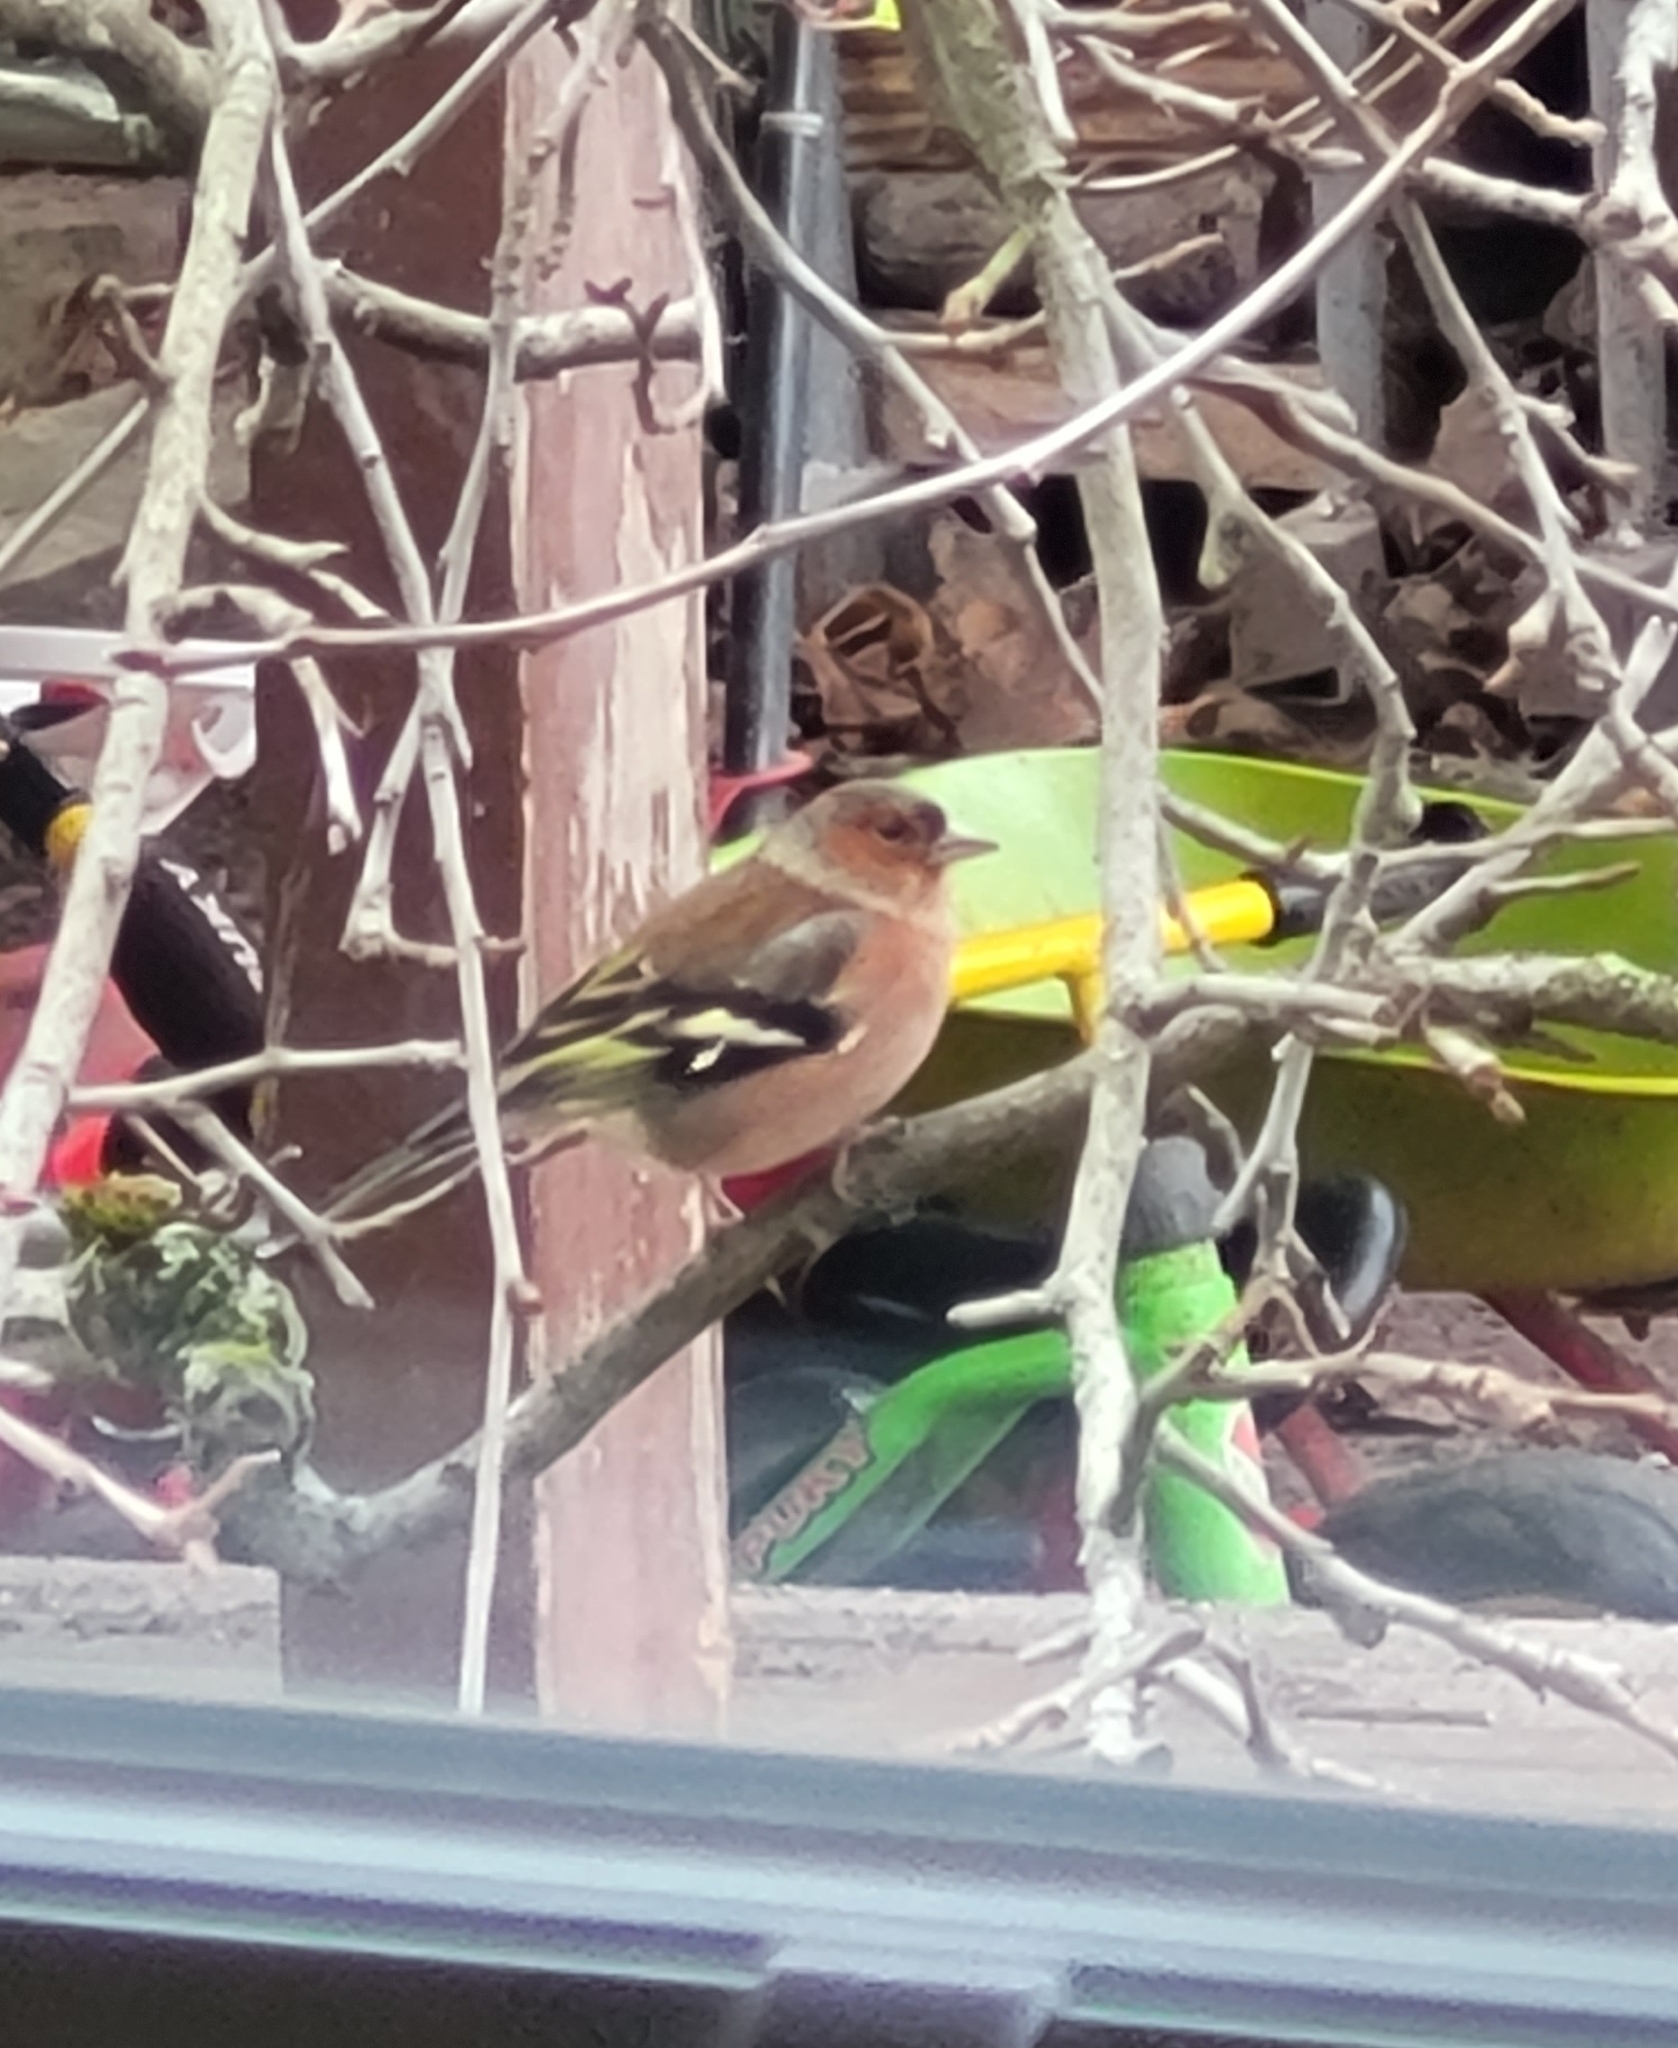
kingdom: Animalia
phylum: Chordata
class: Aves
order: Passeriformes
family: Fringillidae
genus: Fringilla
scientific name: Fringilla coelebs
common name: Common chaffinch
